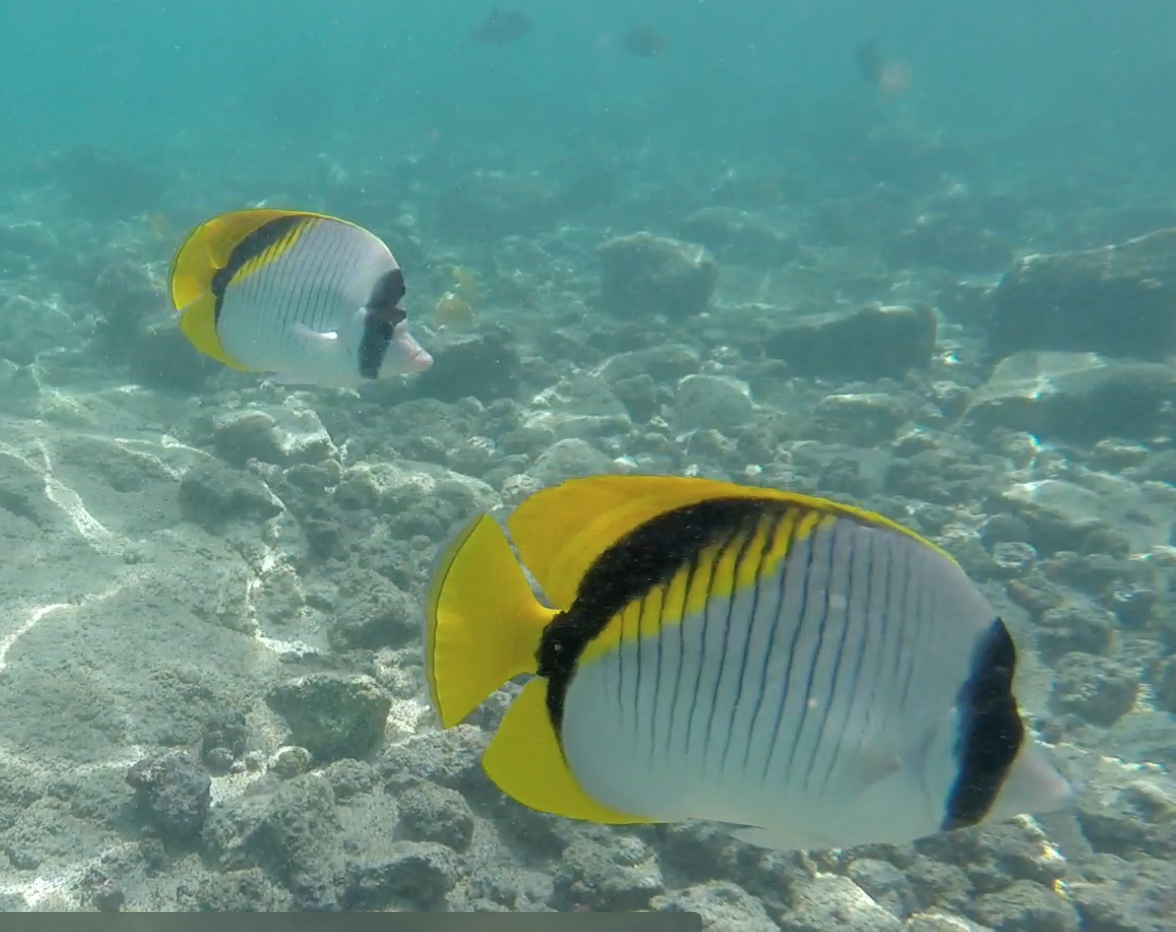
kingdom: Animalia
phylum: Chordata
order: Perciformes
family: Chaetodontidae
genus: Chaetodon
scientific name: Chaetodon lineolatus
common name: Lined butterflyfish
